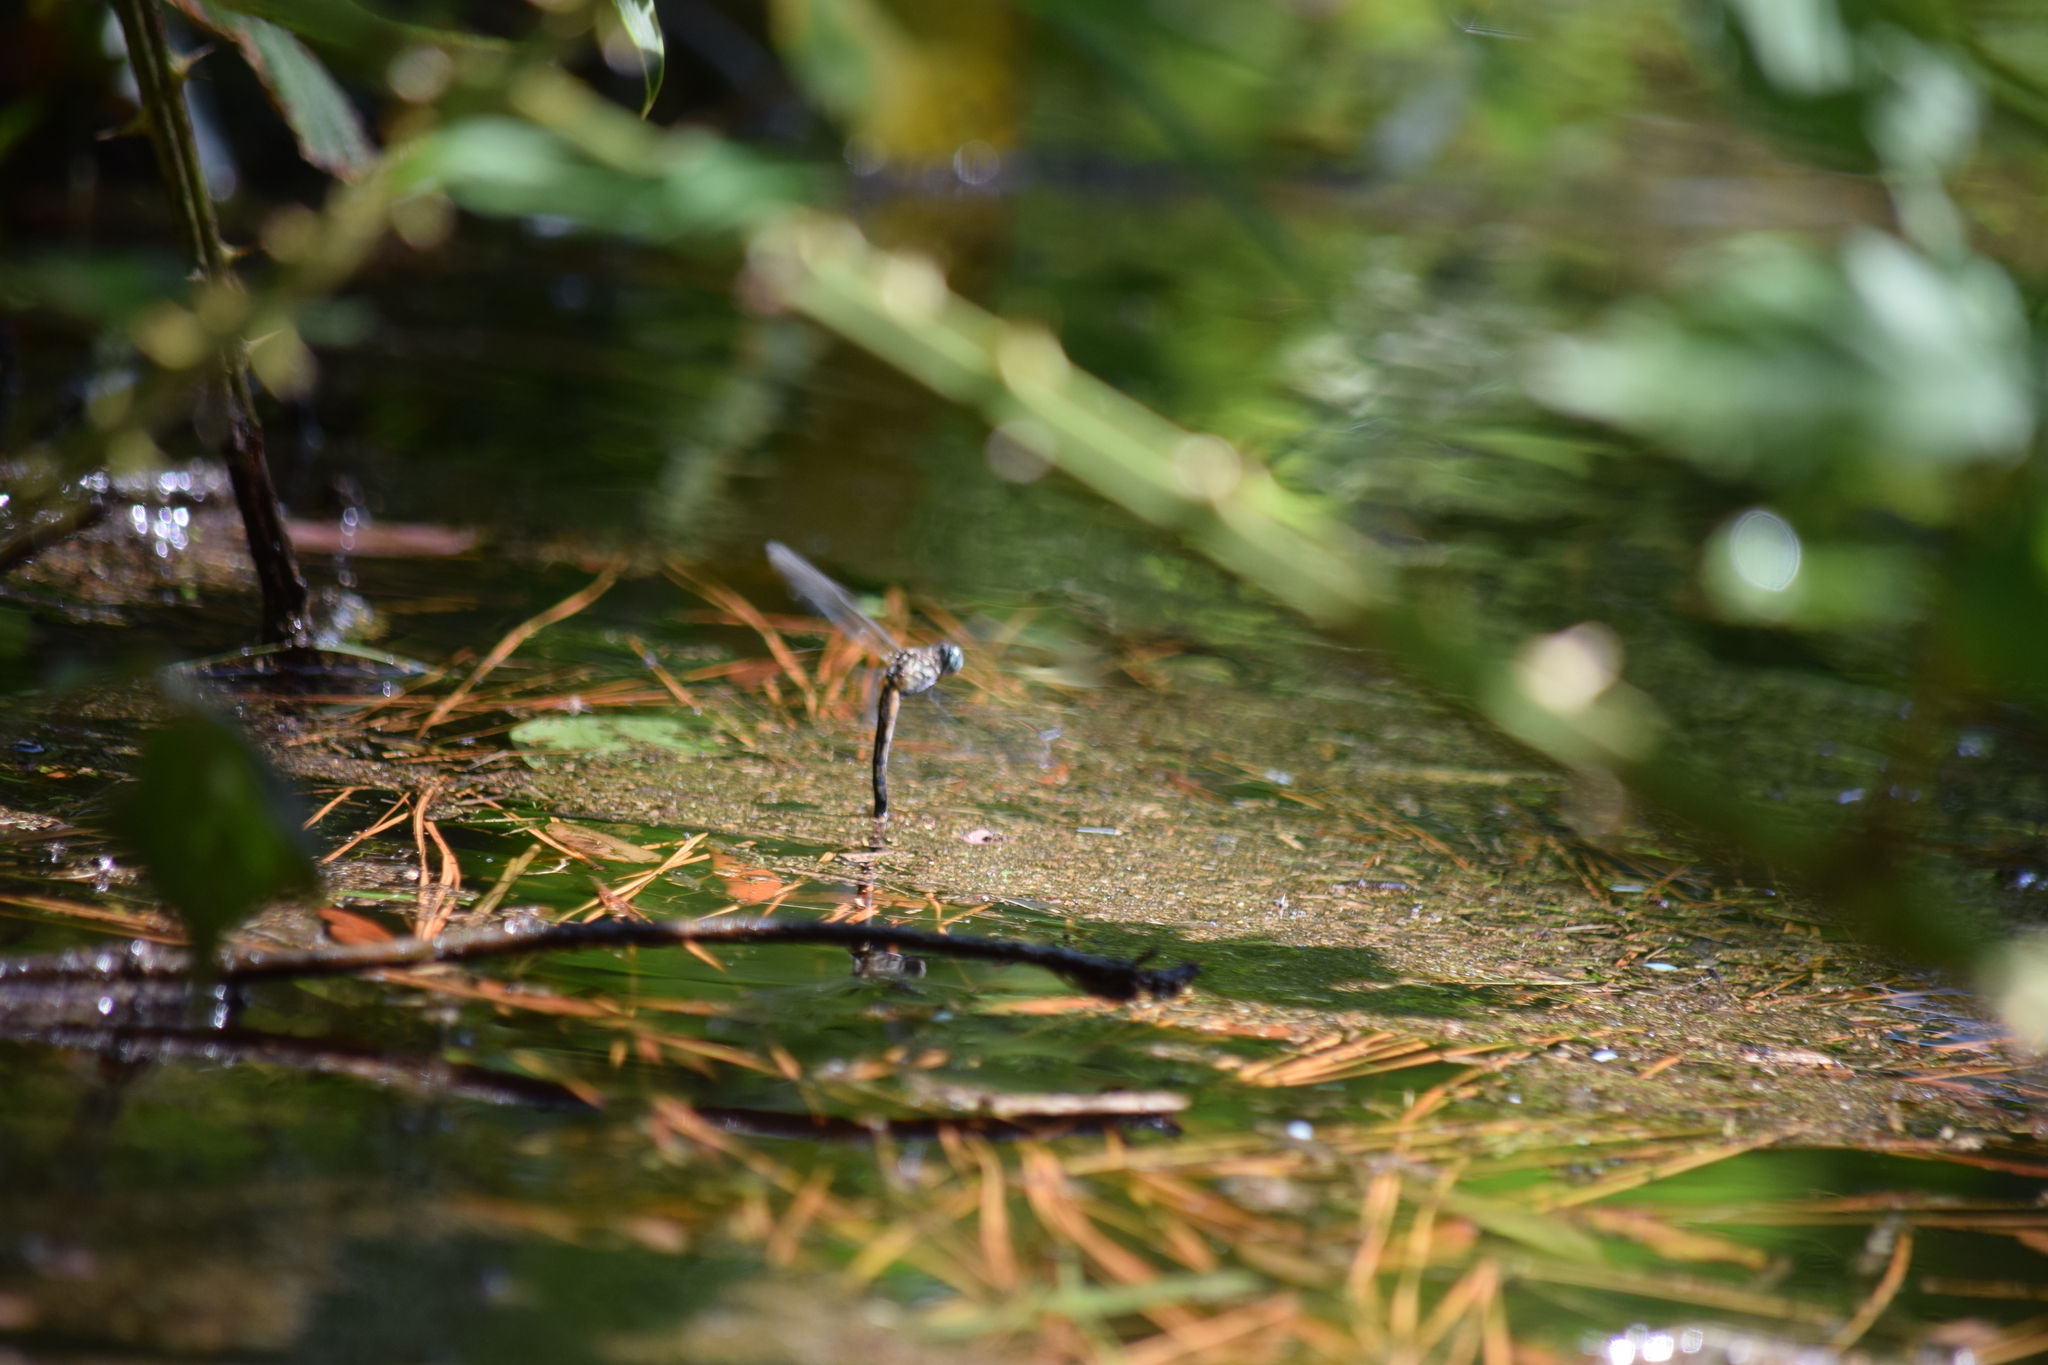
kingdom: Animalia
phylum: Arthropoda
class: Insecta
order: Odonata
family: Libellulidae
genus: Pachydiplax
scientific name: Pachydiplax longipennis
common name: Blue dasher
